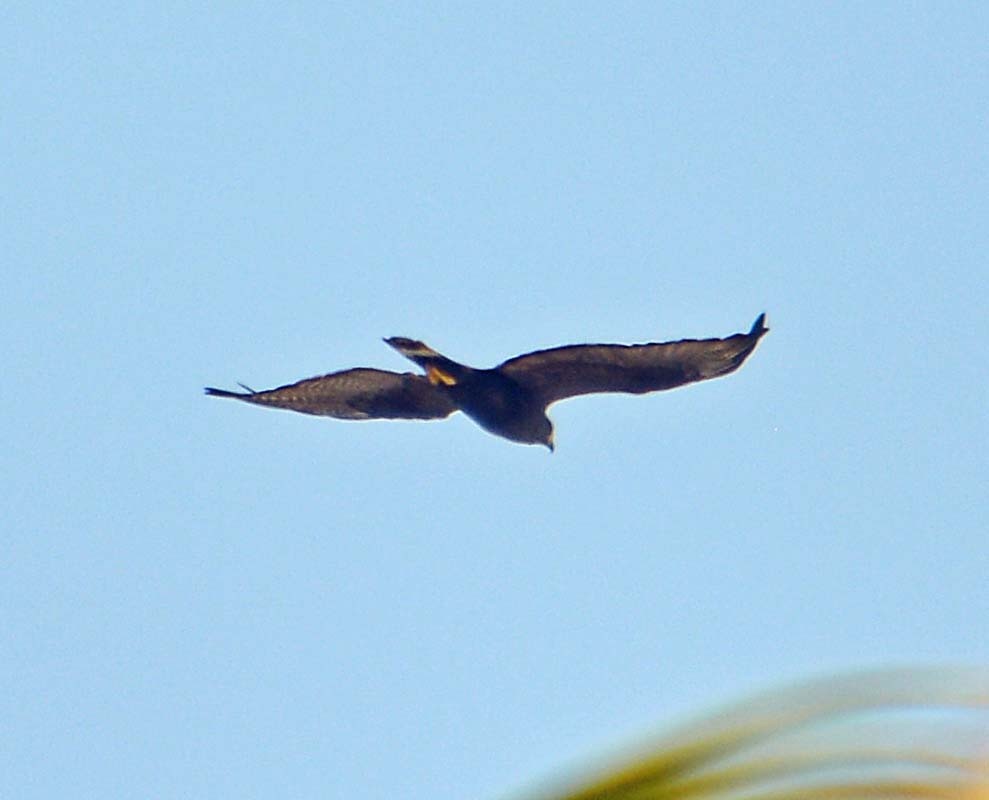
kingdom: Animalia
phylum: Chordata
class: Aves
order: Accipitriformes
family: Accipitridae
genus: Buteo
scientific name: Buteo albonotatus
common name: Zone-tailed hawk
